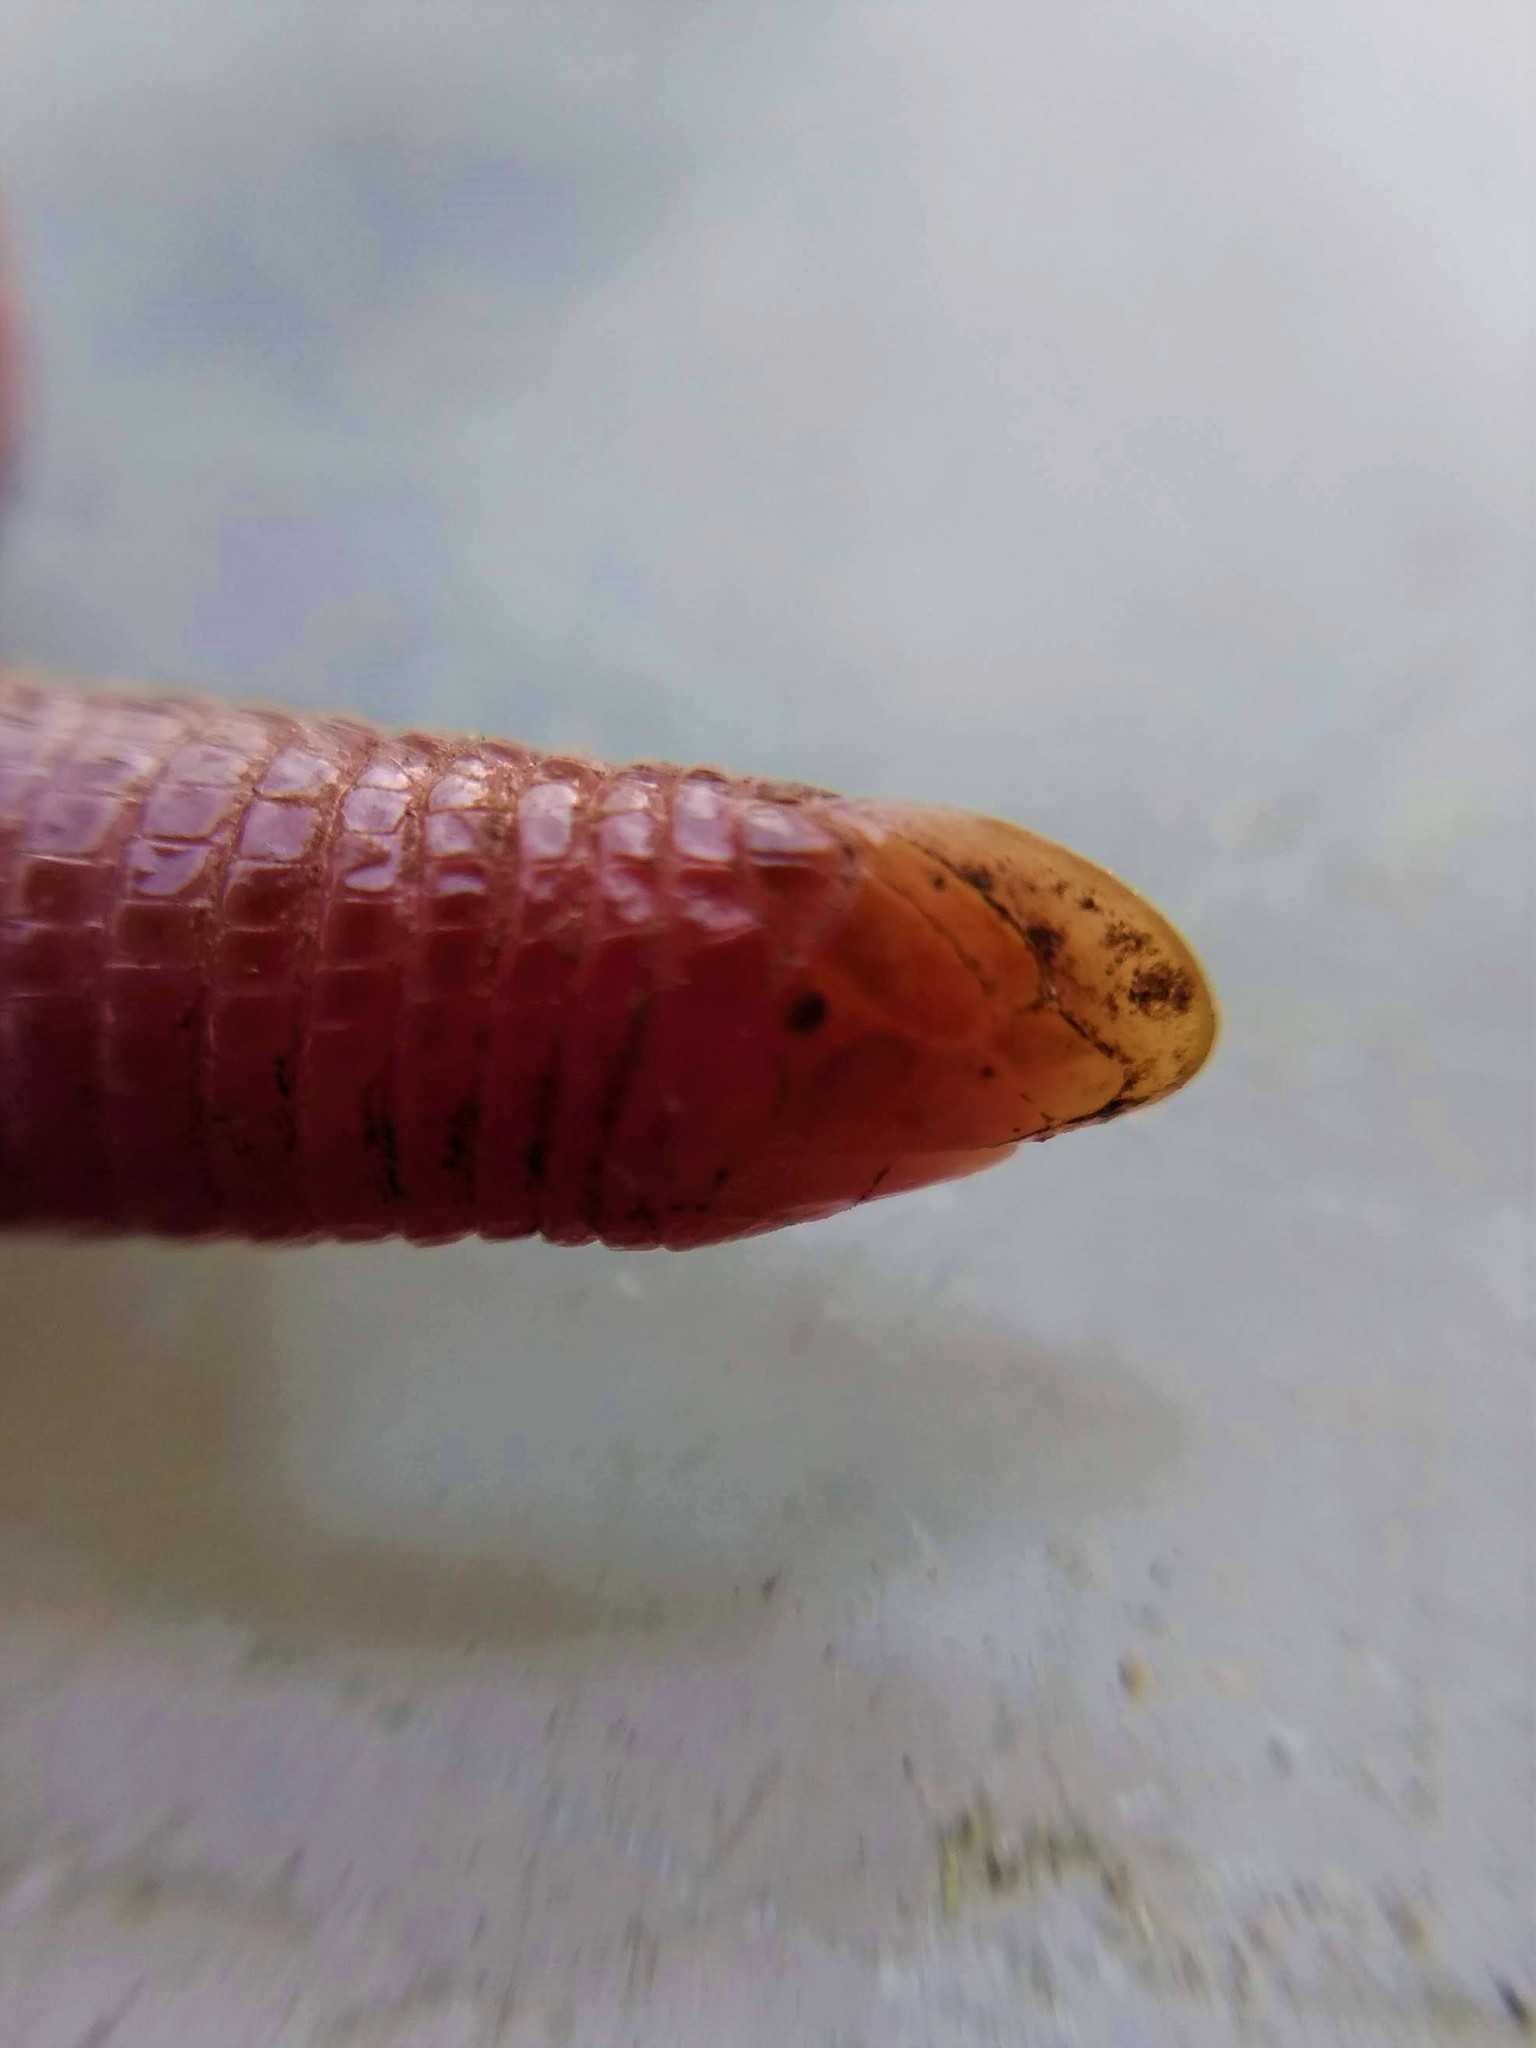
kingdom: Animalia
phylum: Chordata
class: Squamata
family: Amphisbaenidae
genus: Amphisbaena
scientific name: Amphisbaena kingii
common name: King's worm lizard
